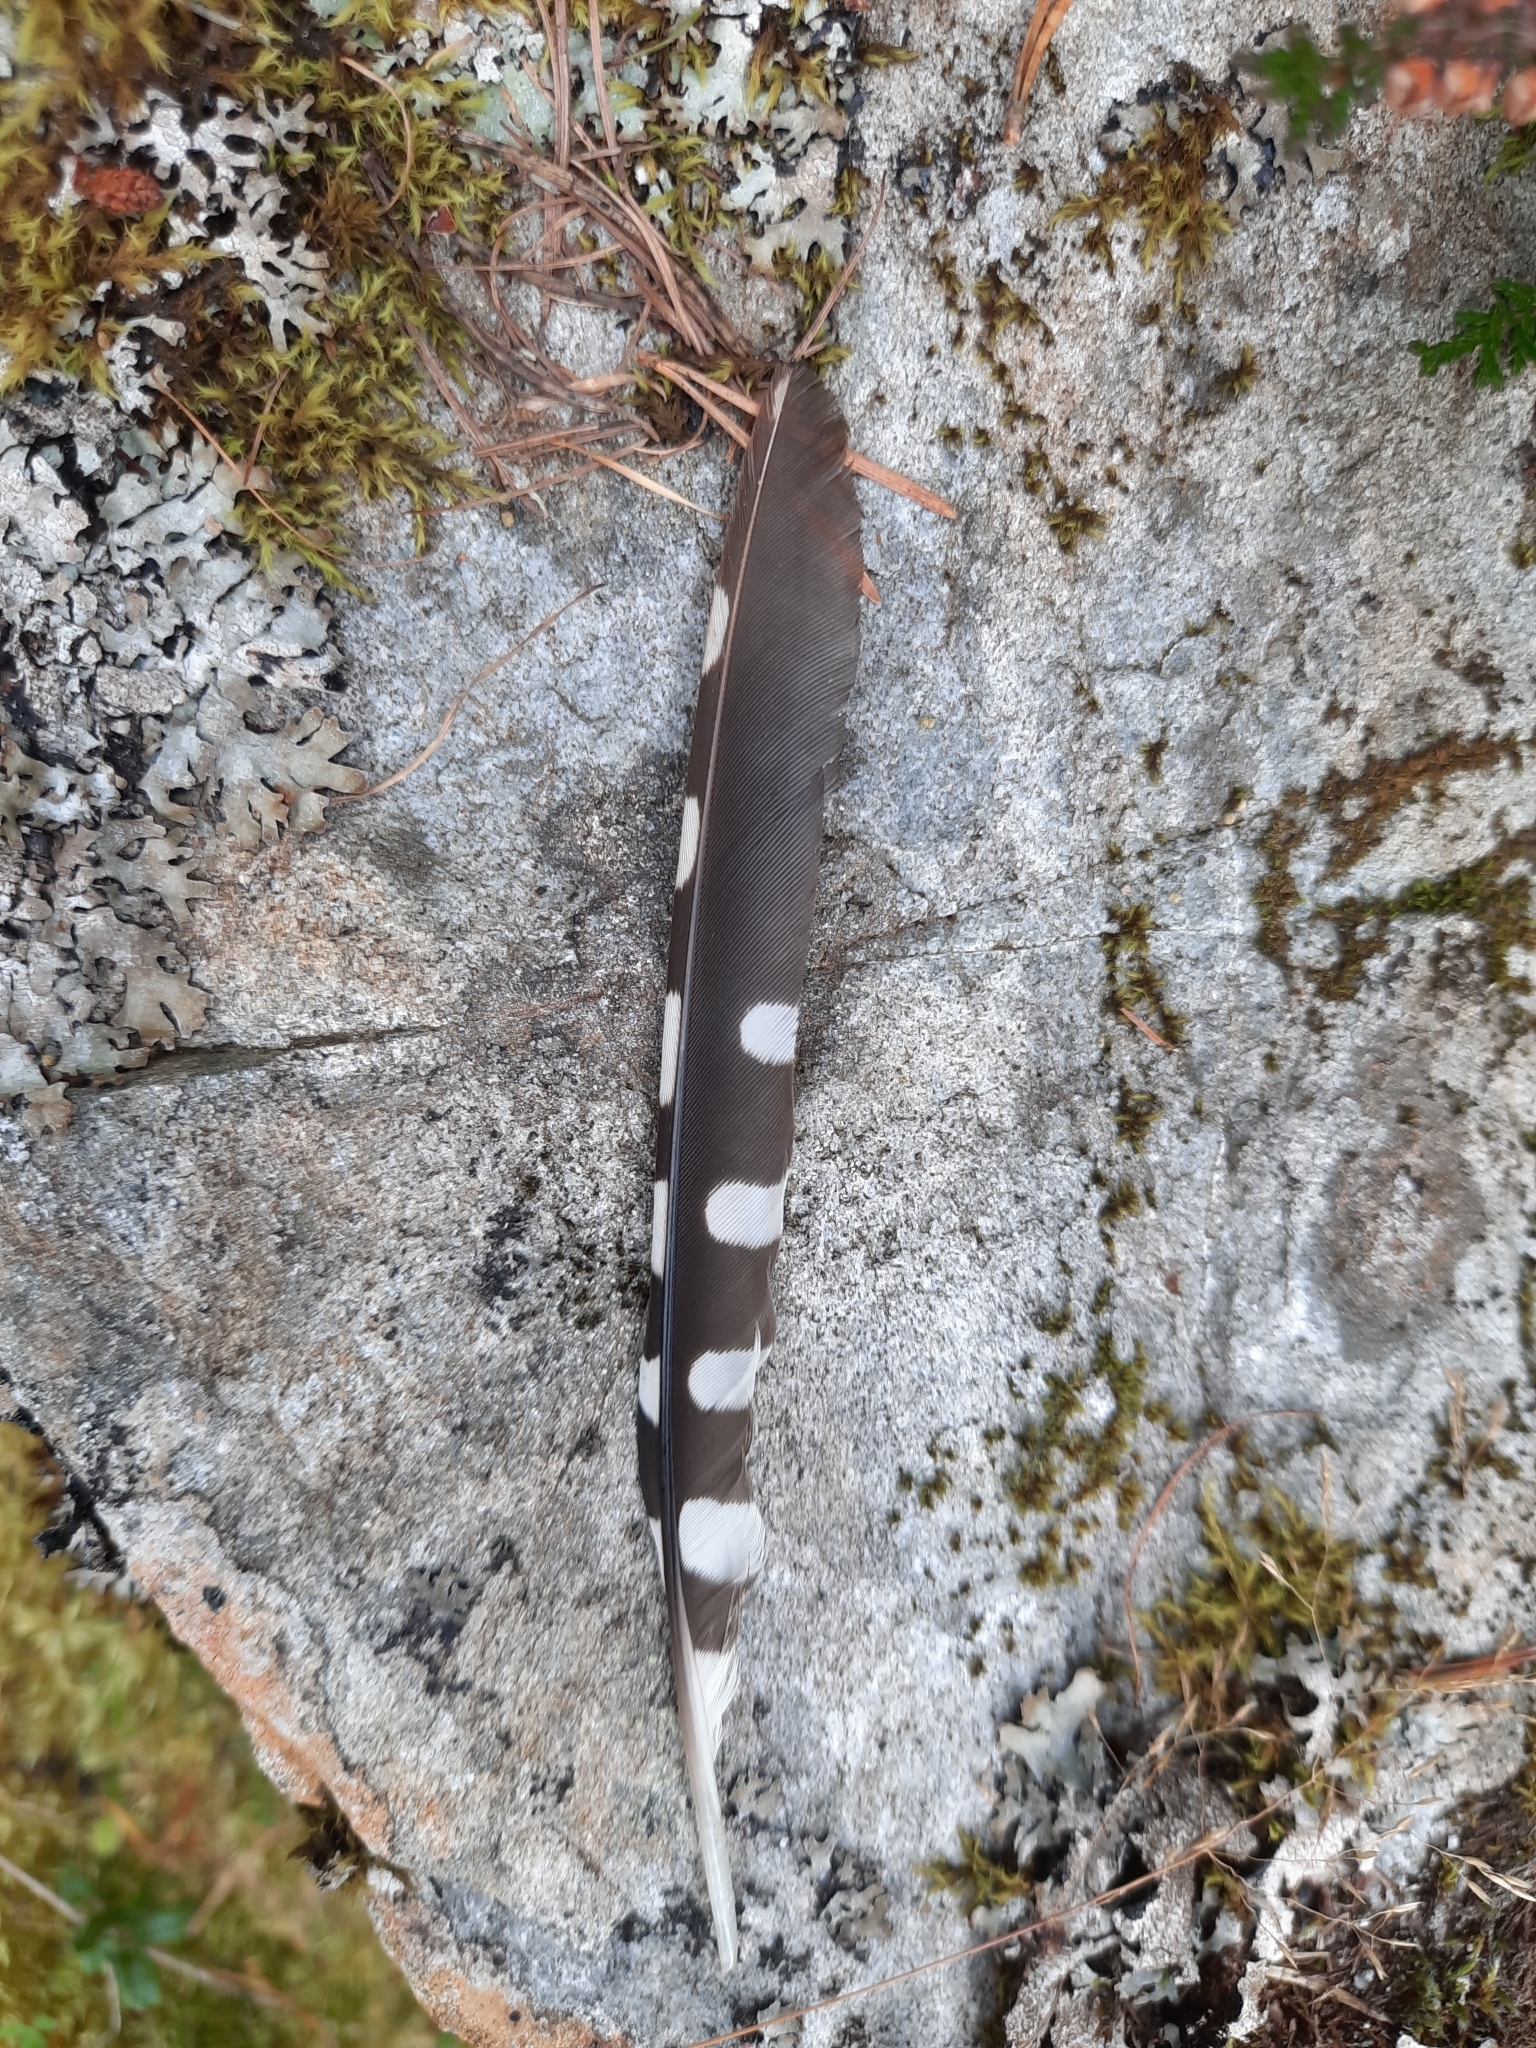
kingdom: Animalia
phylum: Chordata
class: Aves
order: Piciformes
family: Picidae
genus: Dendrocopos
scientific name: Dendrocopos major
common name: Great spotted woodpecker
